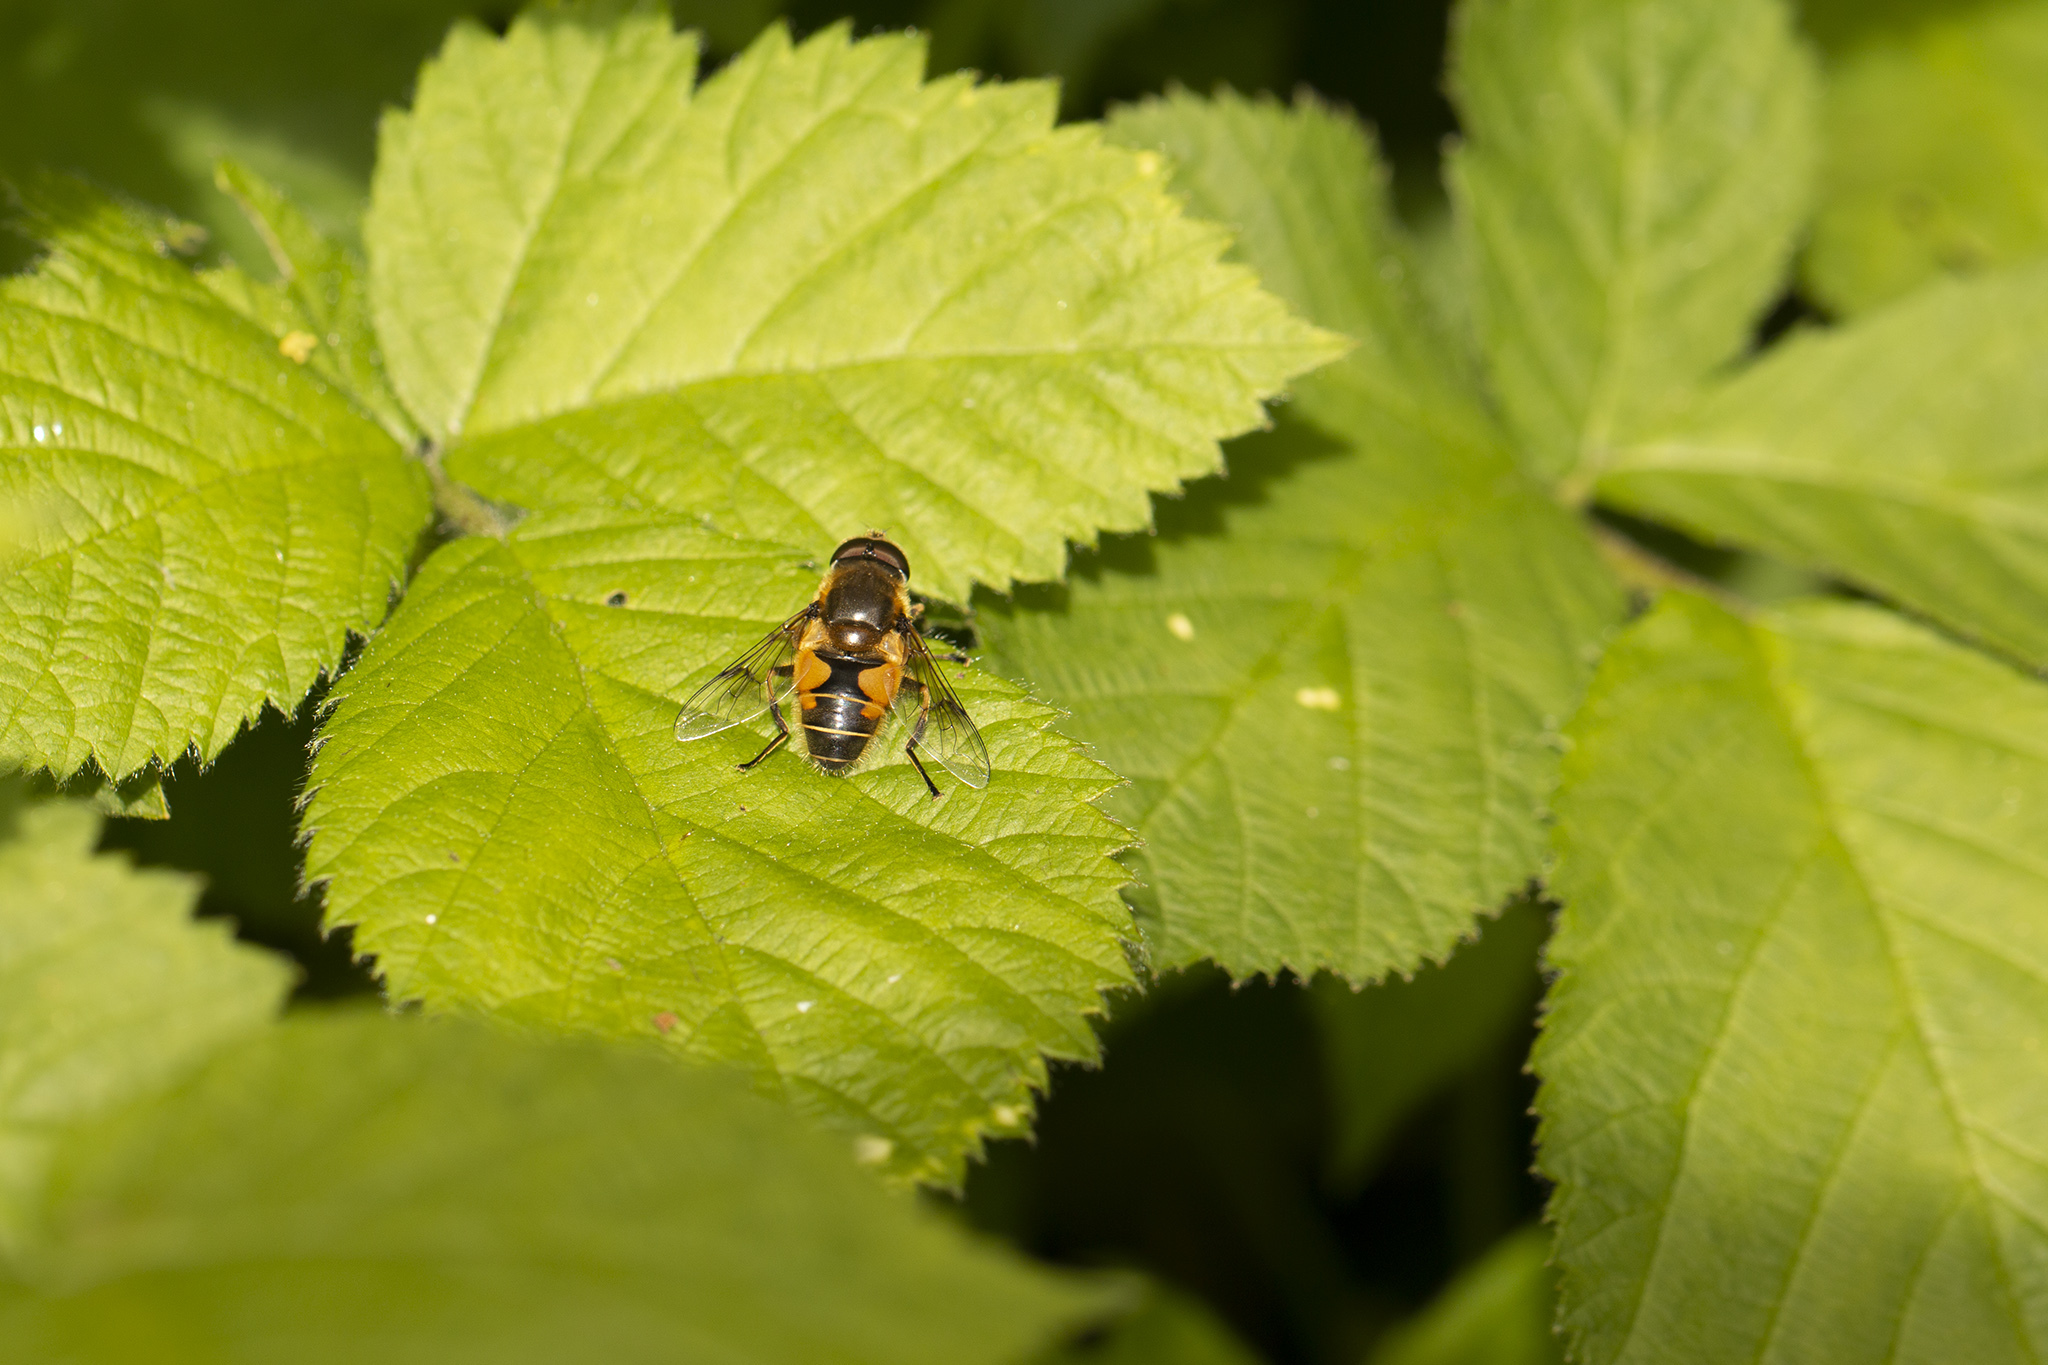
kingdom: Animalia
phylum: Arthropoda
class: Insecta
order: Diptera
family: Syrphidae
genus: Cheilosia
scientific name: Cheilosia morio
